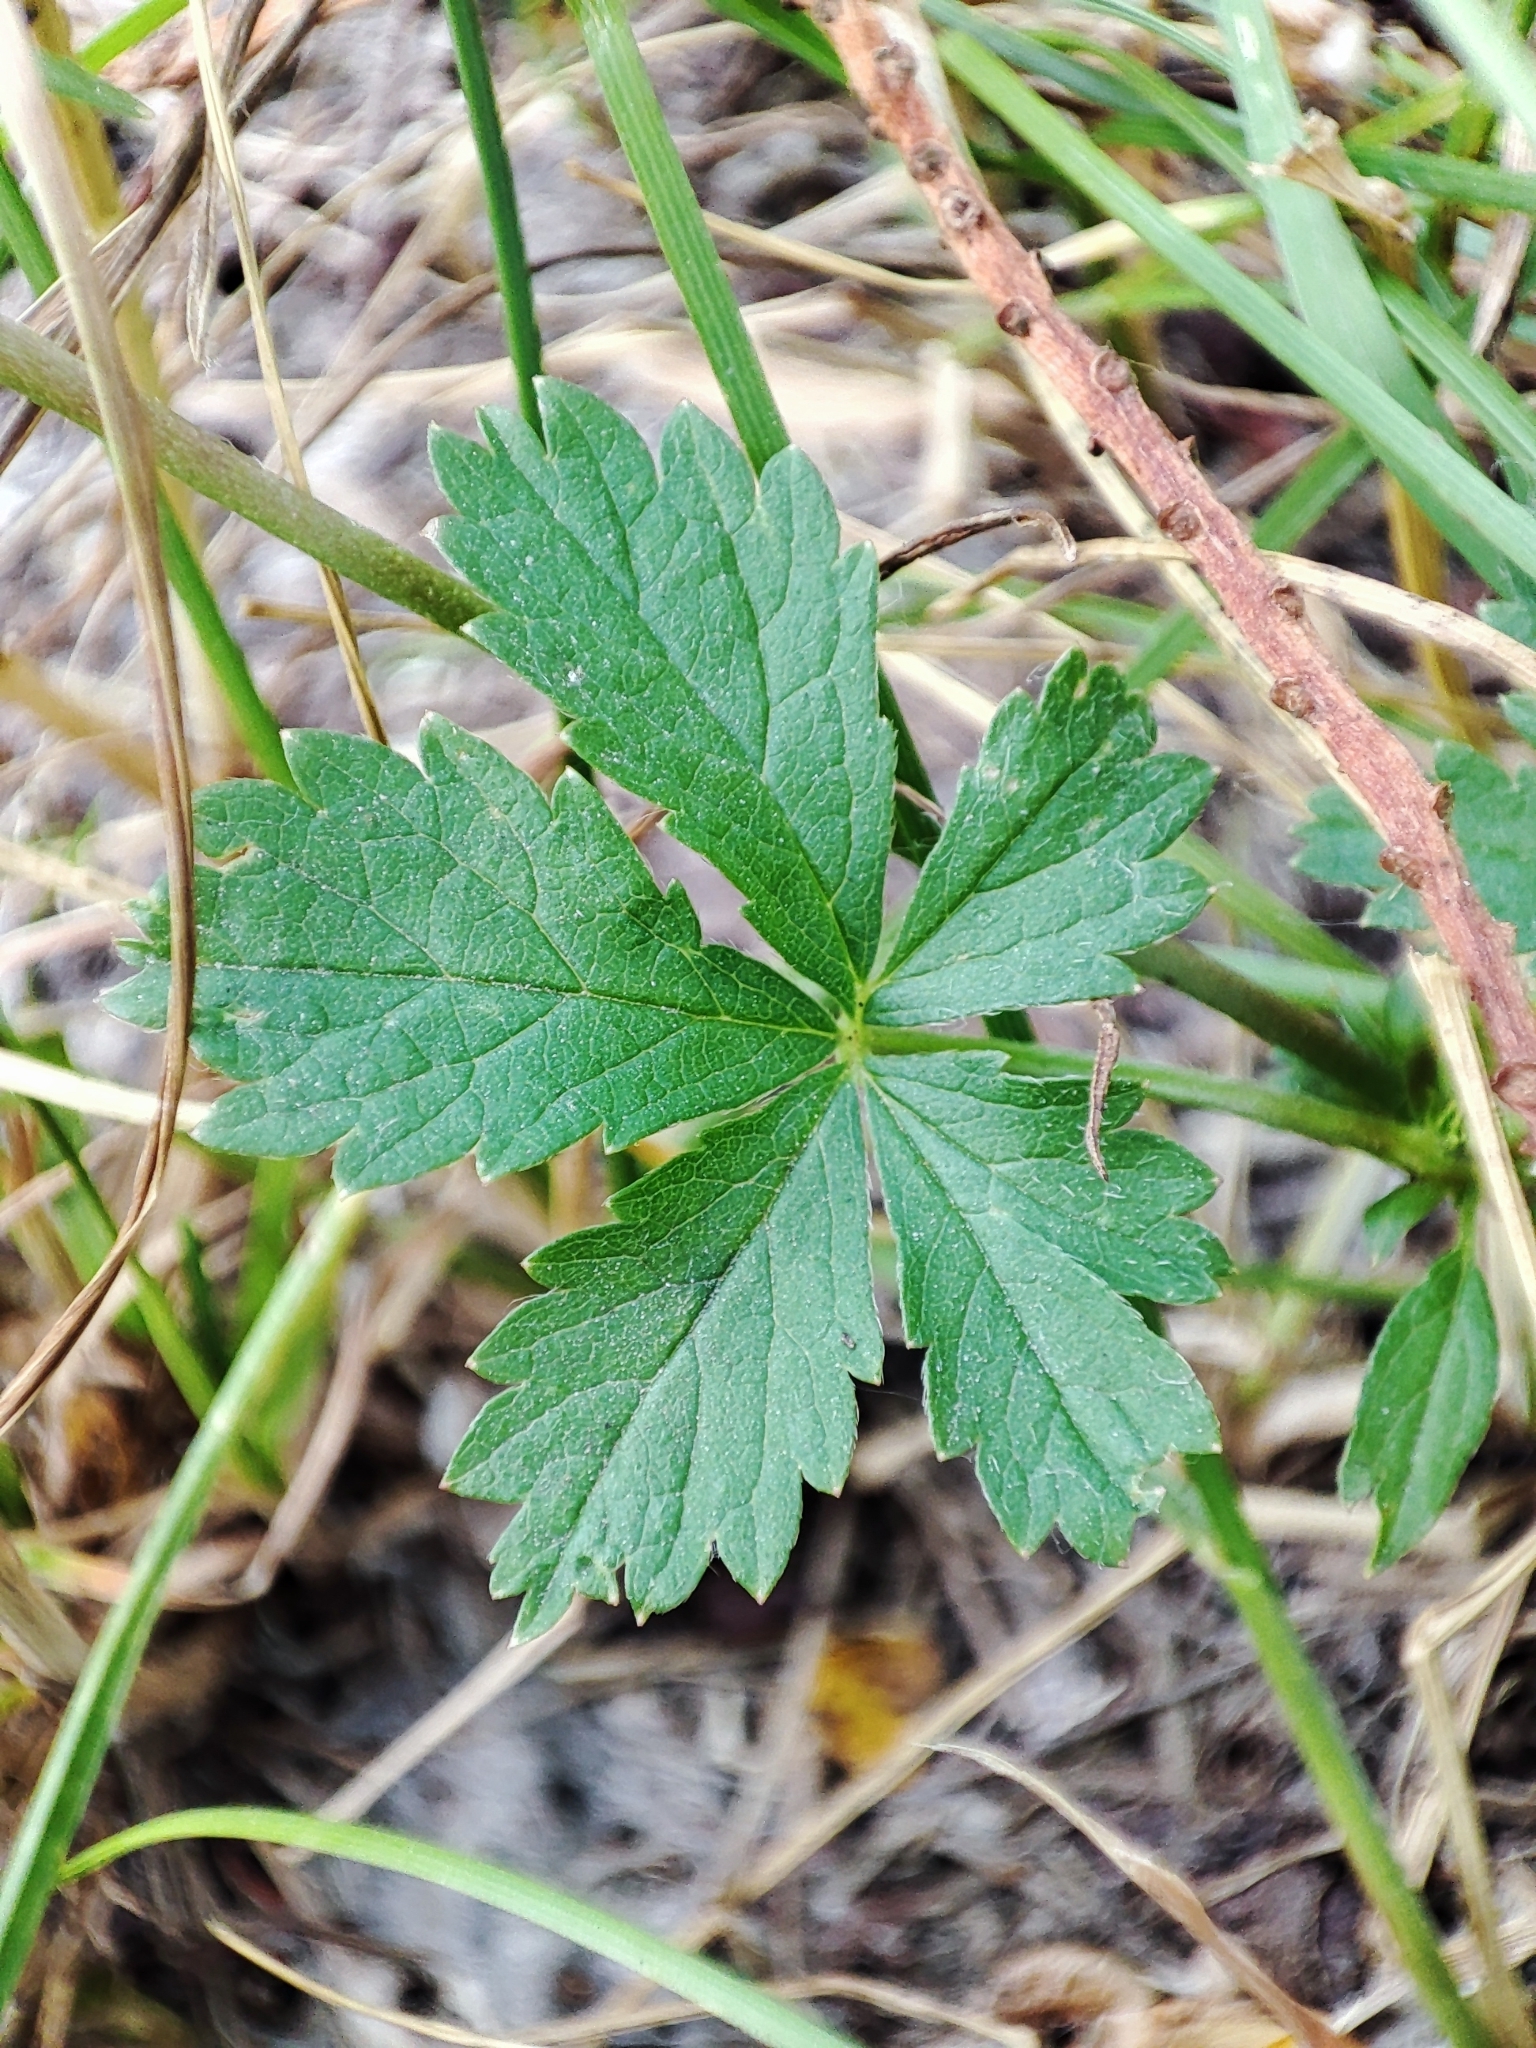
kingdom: Plantae
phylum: Tracheophyta
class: Magnoliopsida
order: Rosales
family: Rosaceae
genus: Potentilla
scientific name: Potentilla reptans
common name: Creeping cinquefoil
